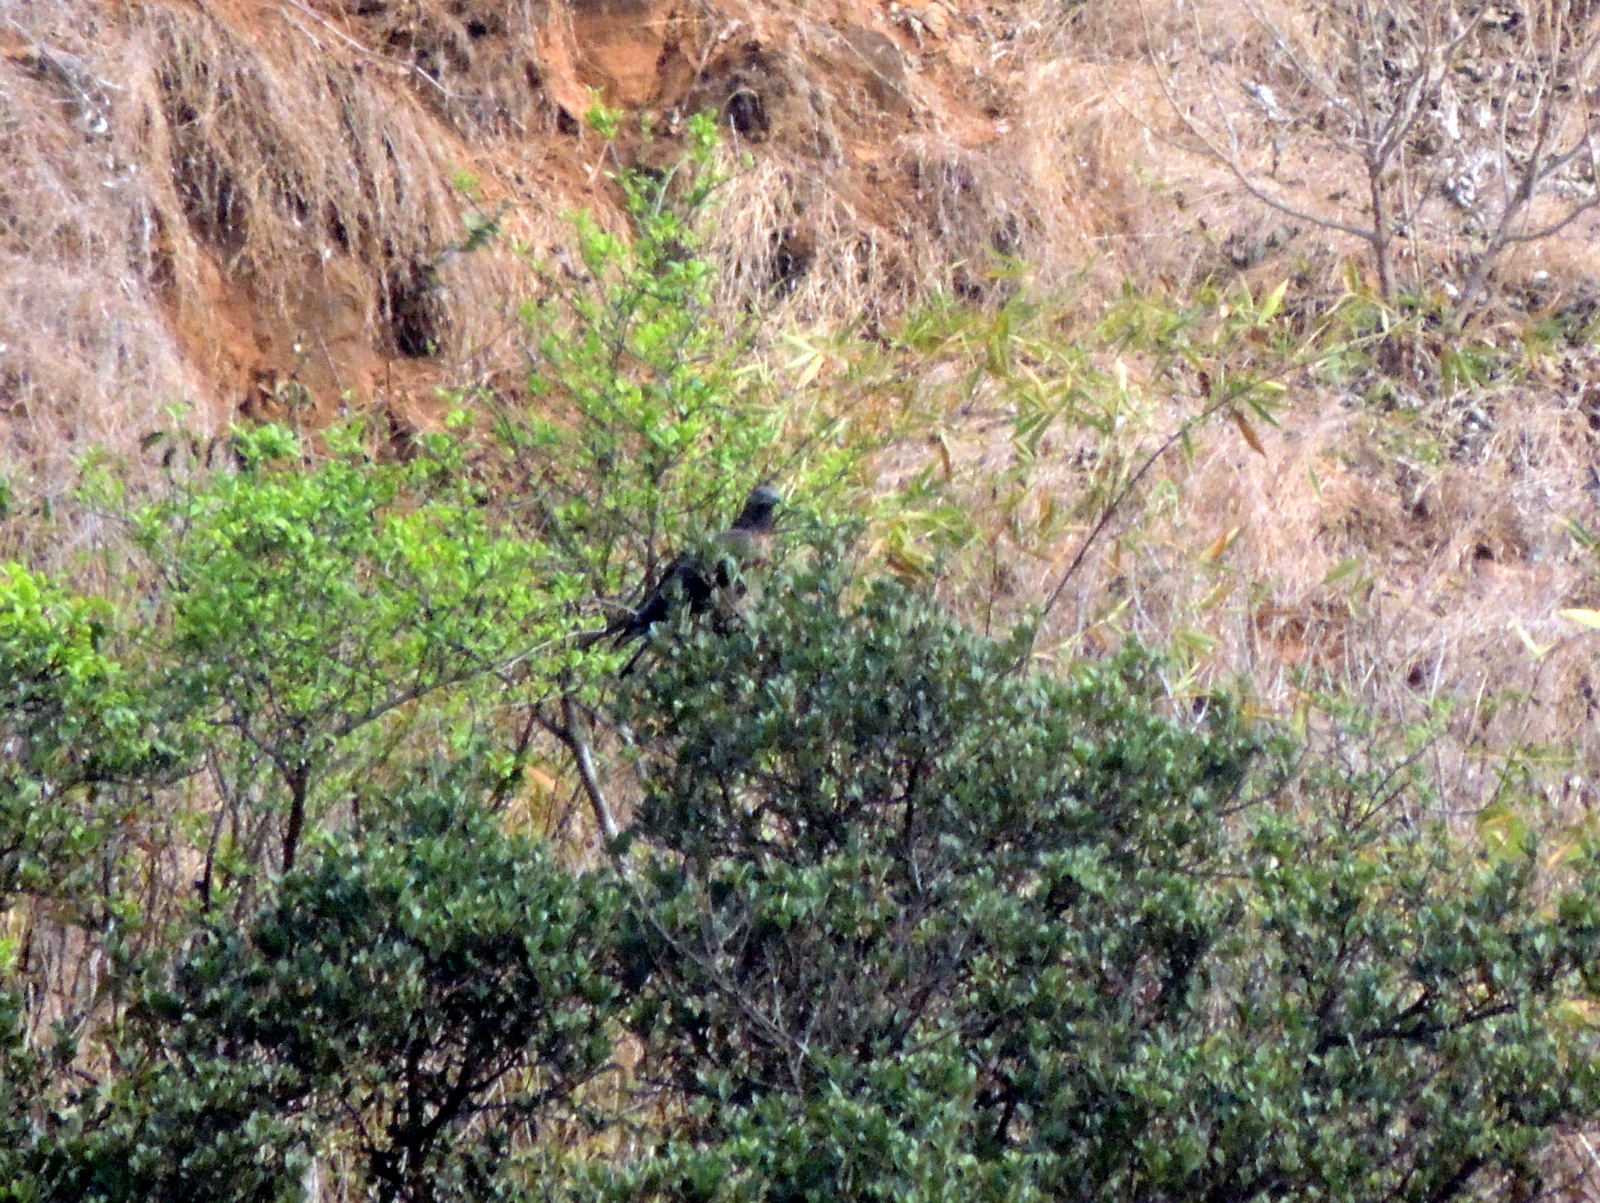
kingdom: Animalia
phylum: Chordata
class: Aves
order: Accipitriformes
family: Accipitridae
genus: Pernis
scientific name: Pernis ptilorhynchus
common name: Crested honey buzzard
